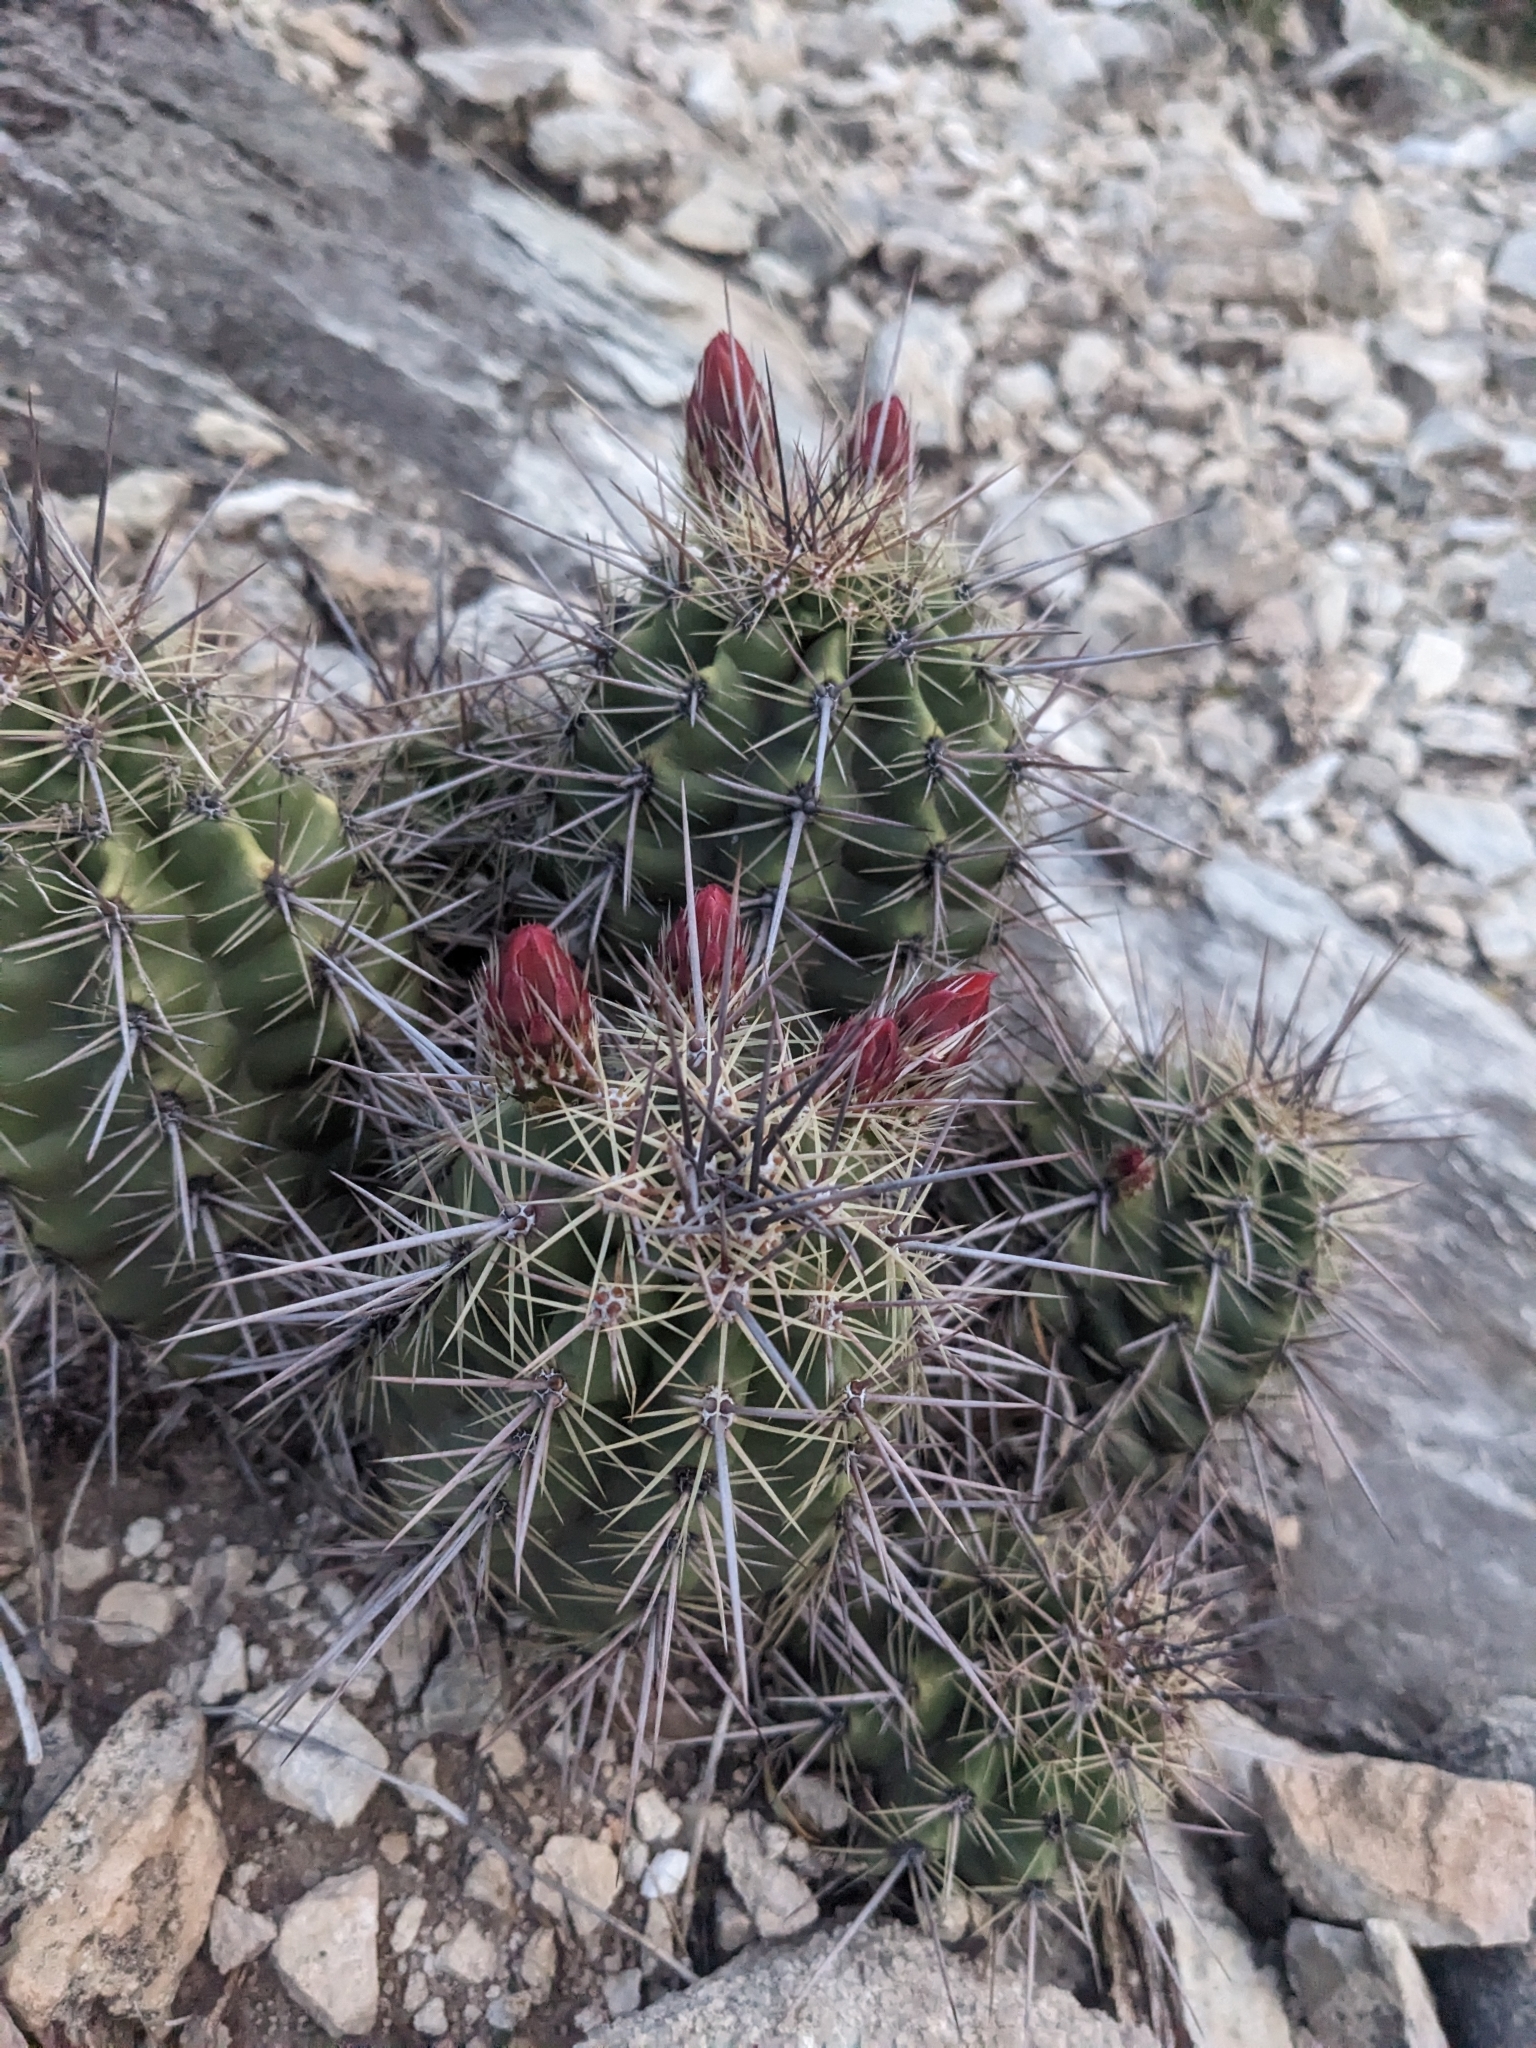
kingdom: Plantae
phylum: Tracheophyta
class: Magnoliopsida
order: Caryophyllales
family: Cactaceae
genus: Echinocereus
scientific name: Echinocereus arizonicus
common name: Arizona hedgehog cactus
